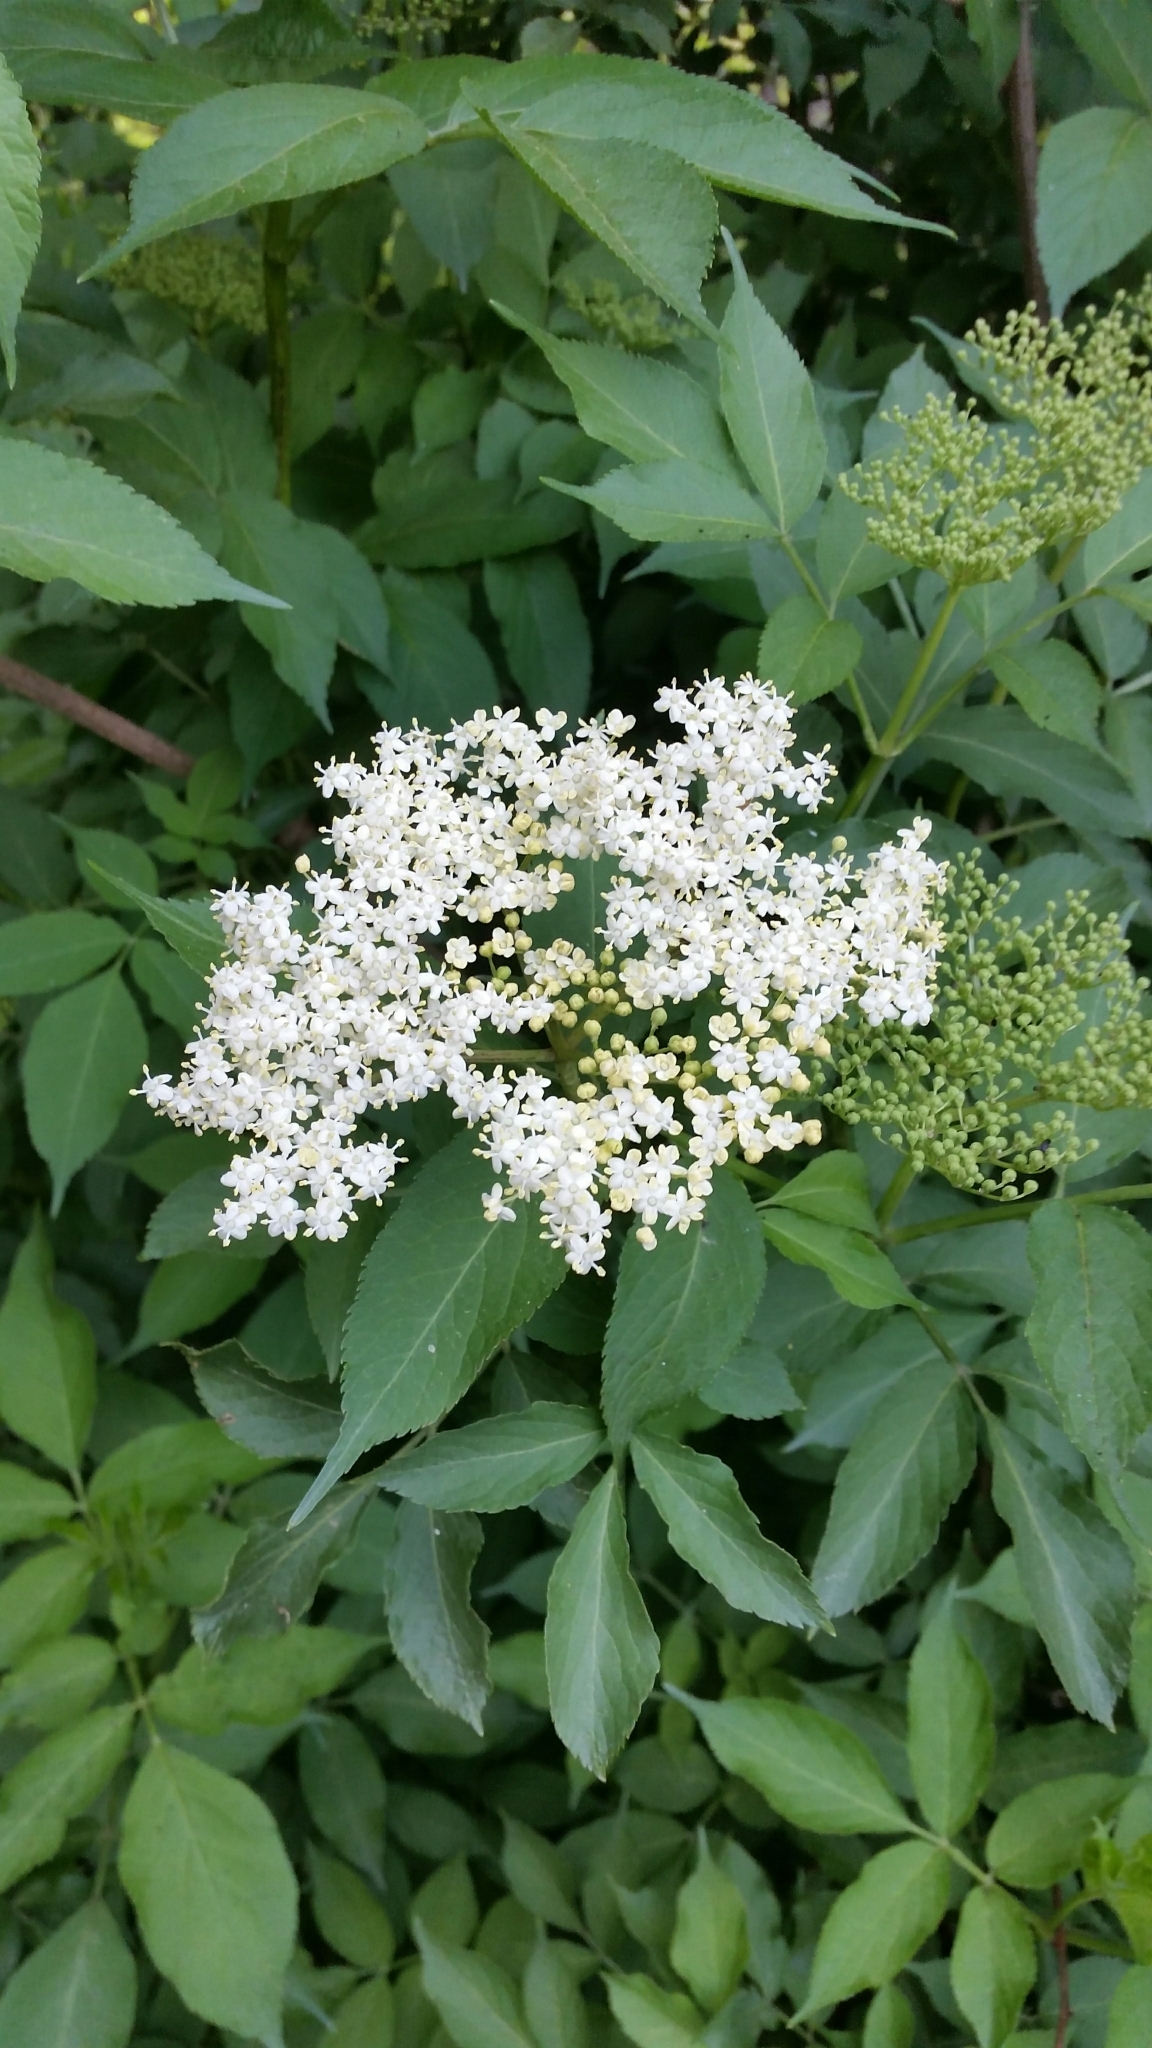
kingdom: Plantae
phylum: Tracheophyta
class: Magnoliopsida
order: Dipsacales
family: Viburnaceae
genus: Sambucus
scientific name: Sambucus nigra
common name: Elder
